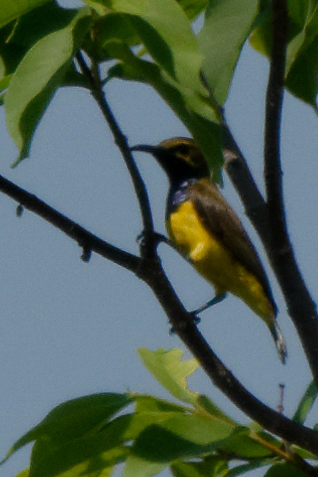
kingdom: Animalia
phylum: Chordata
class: Aves
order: Passeriformes
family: Nectariniidae
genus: Cinnyris
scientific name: Cinnyris
